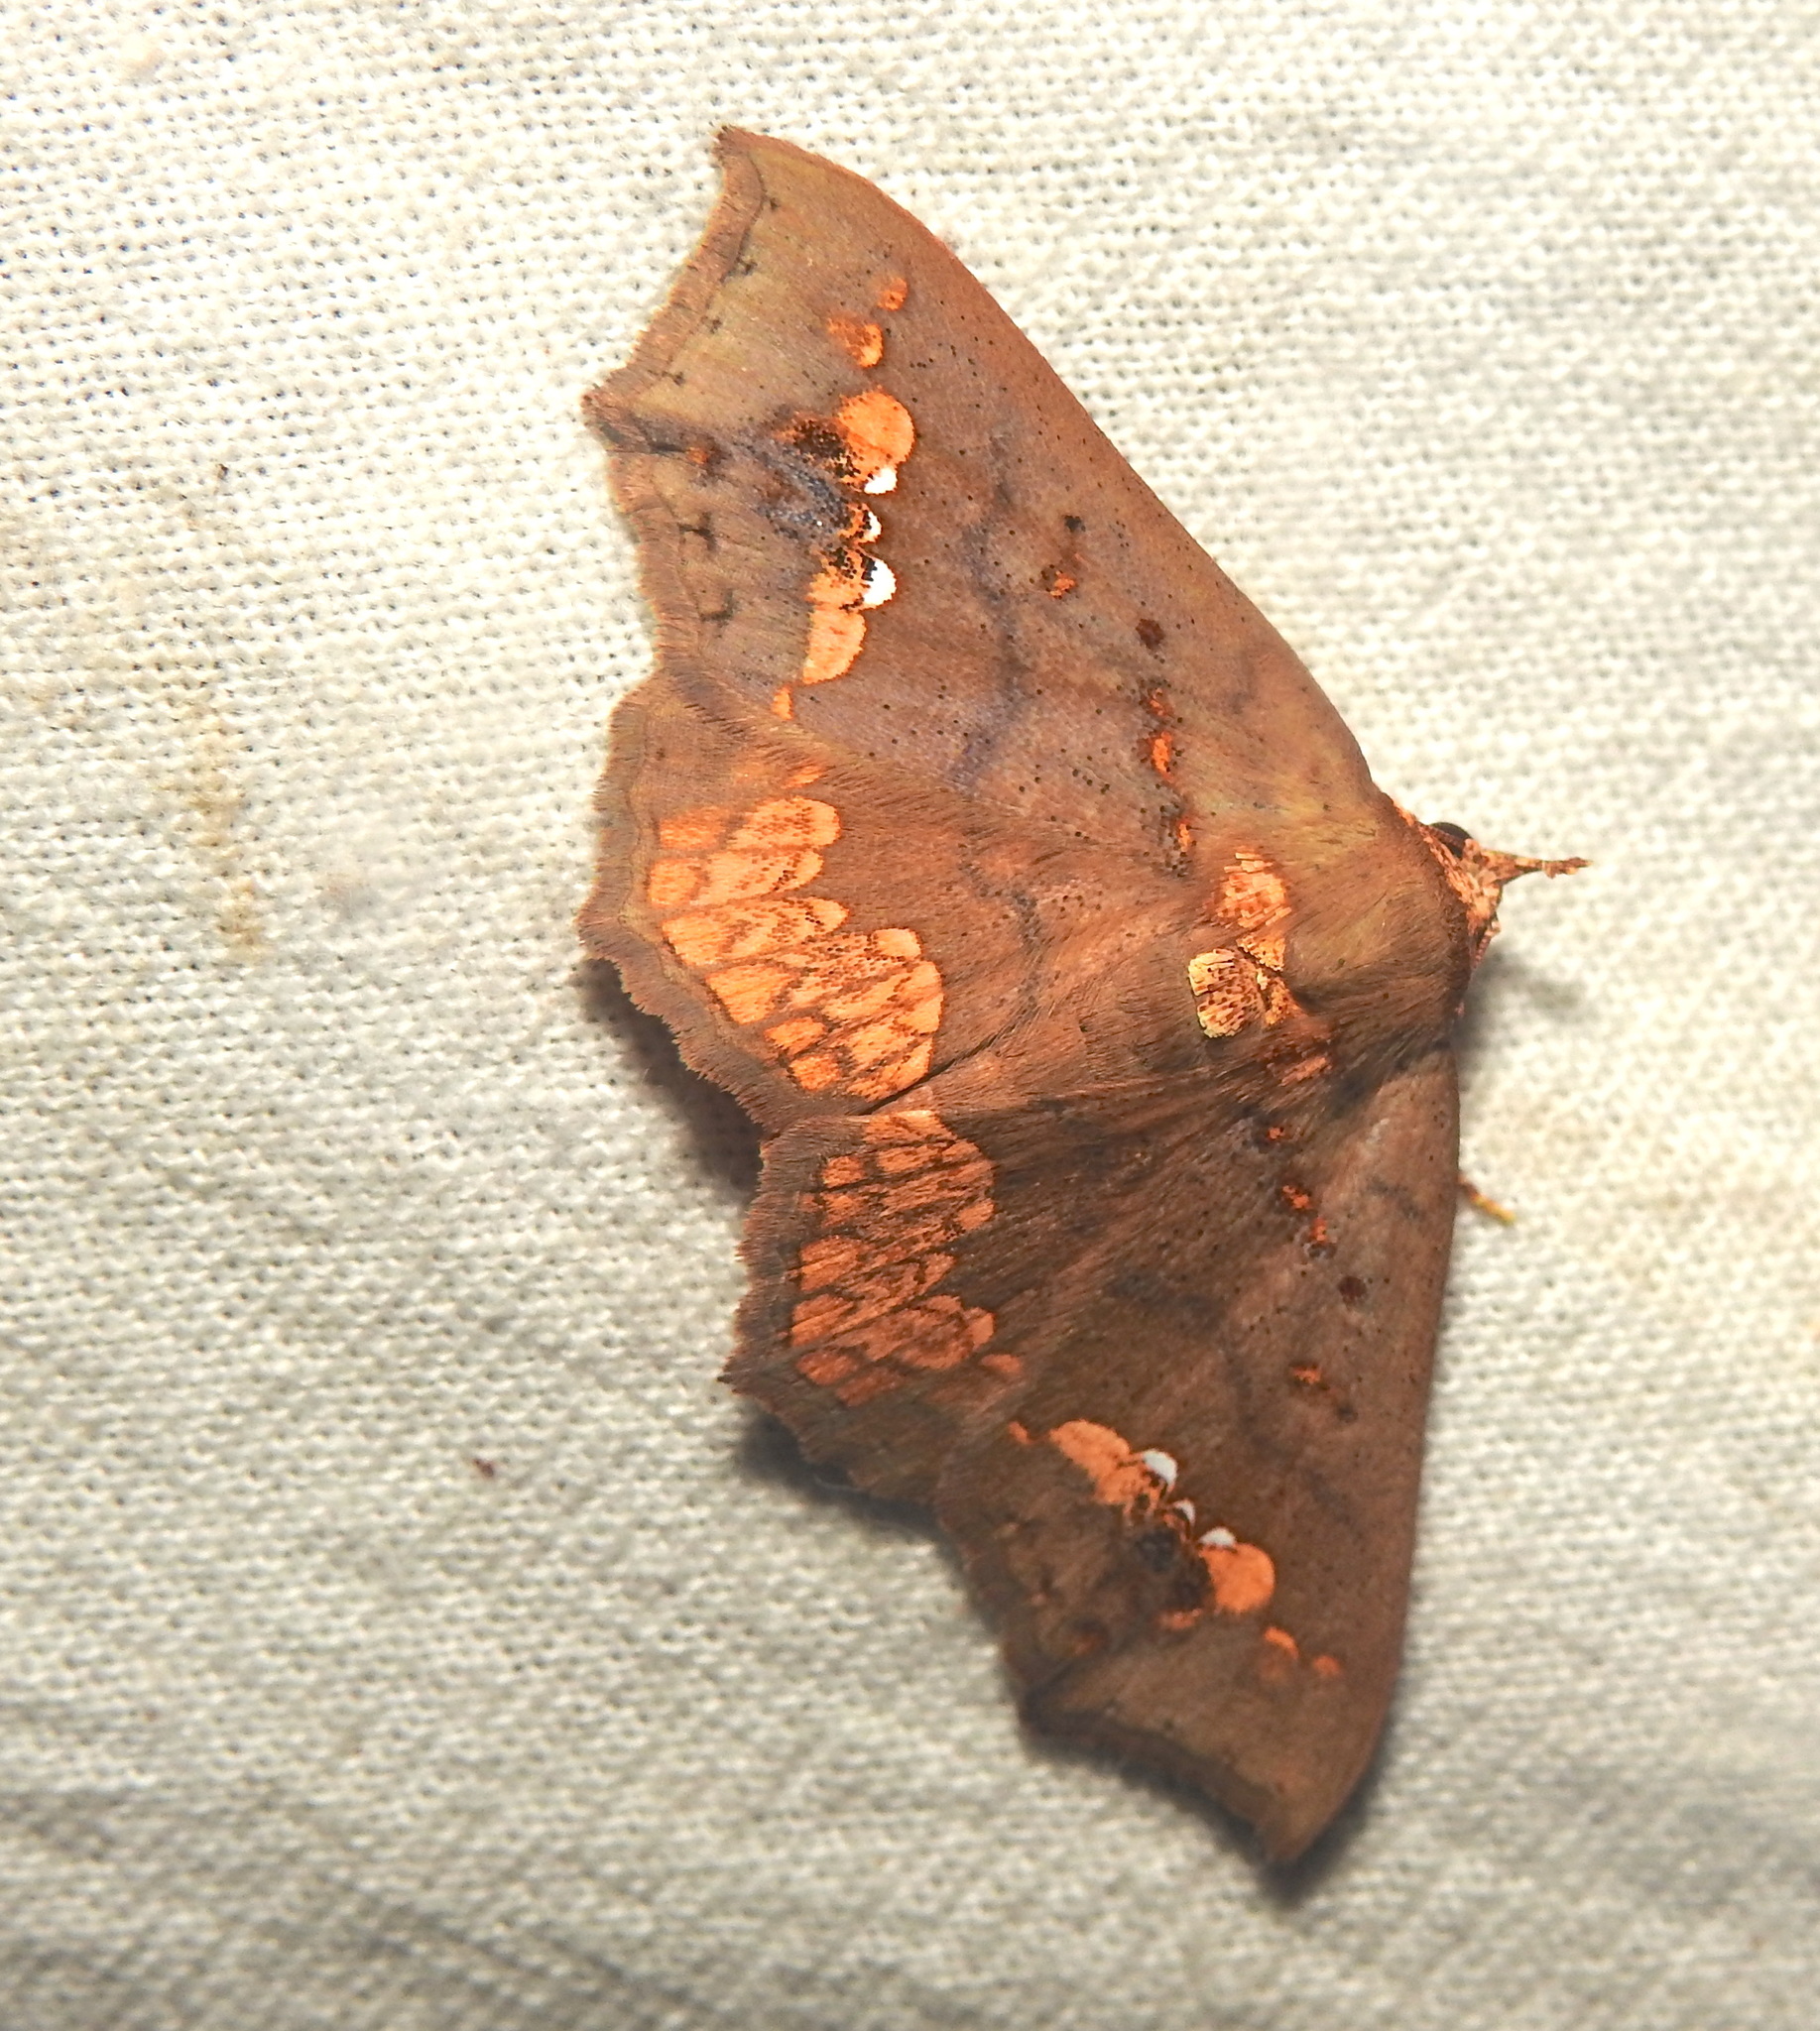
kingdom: Animalia
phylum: Arthropoda
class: Insecta
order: Lepidoptera
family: Erebidae
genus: Lopharthrum
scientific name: Lopharthrum comprimens
